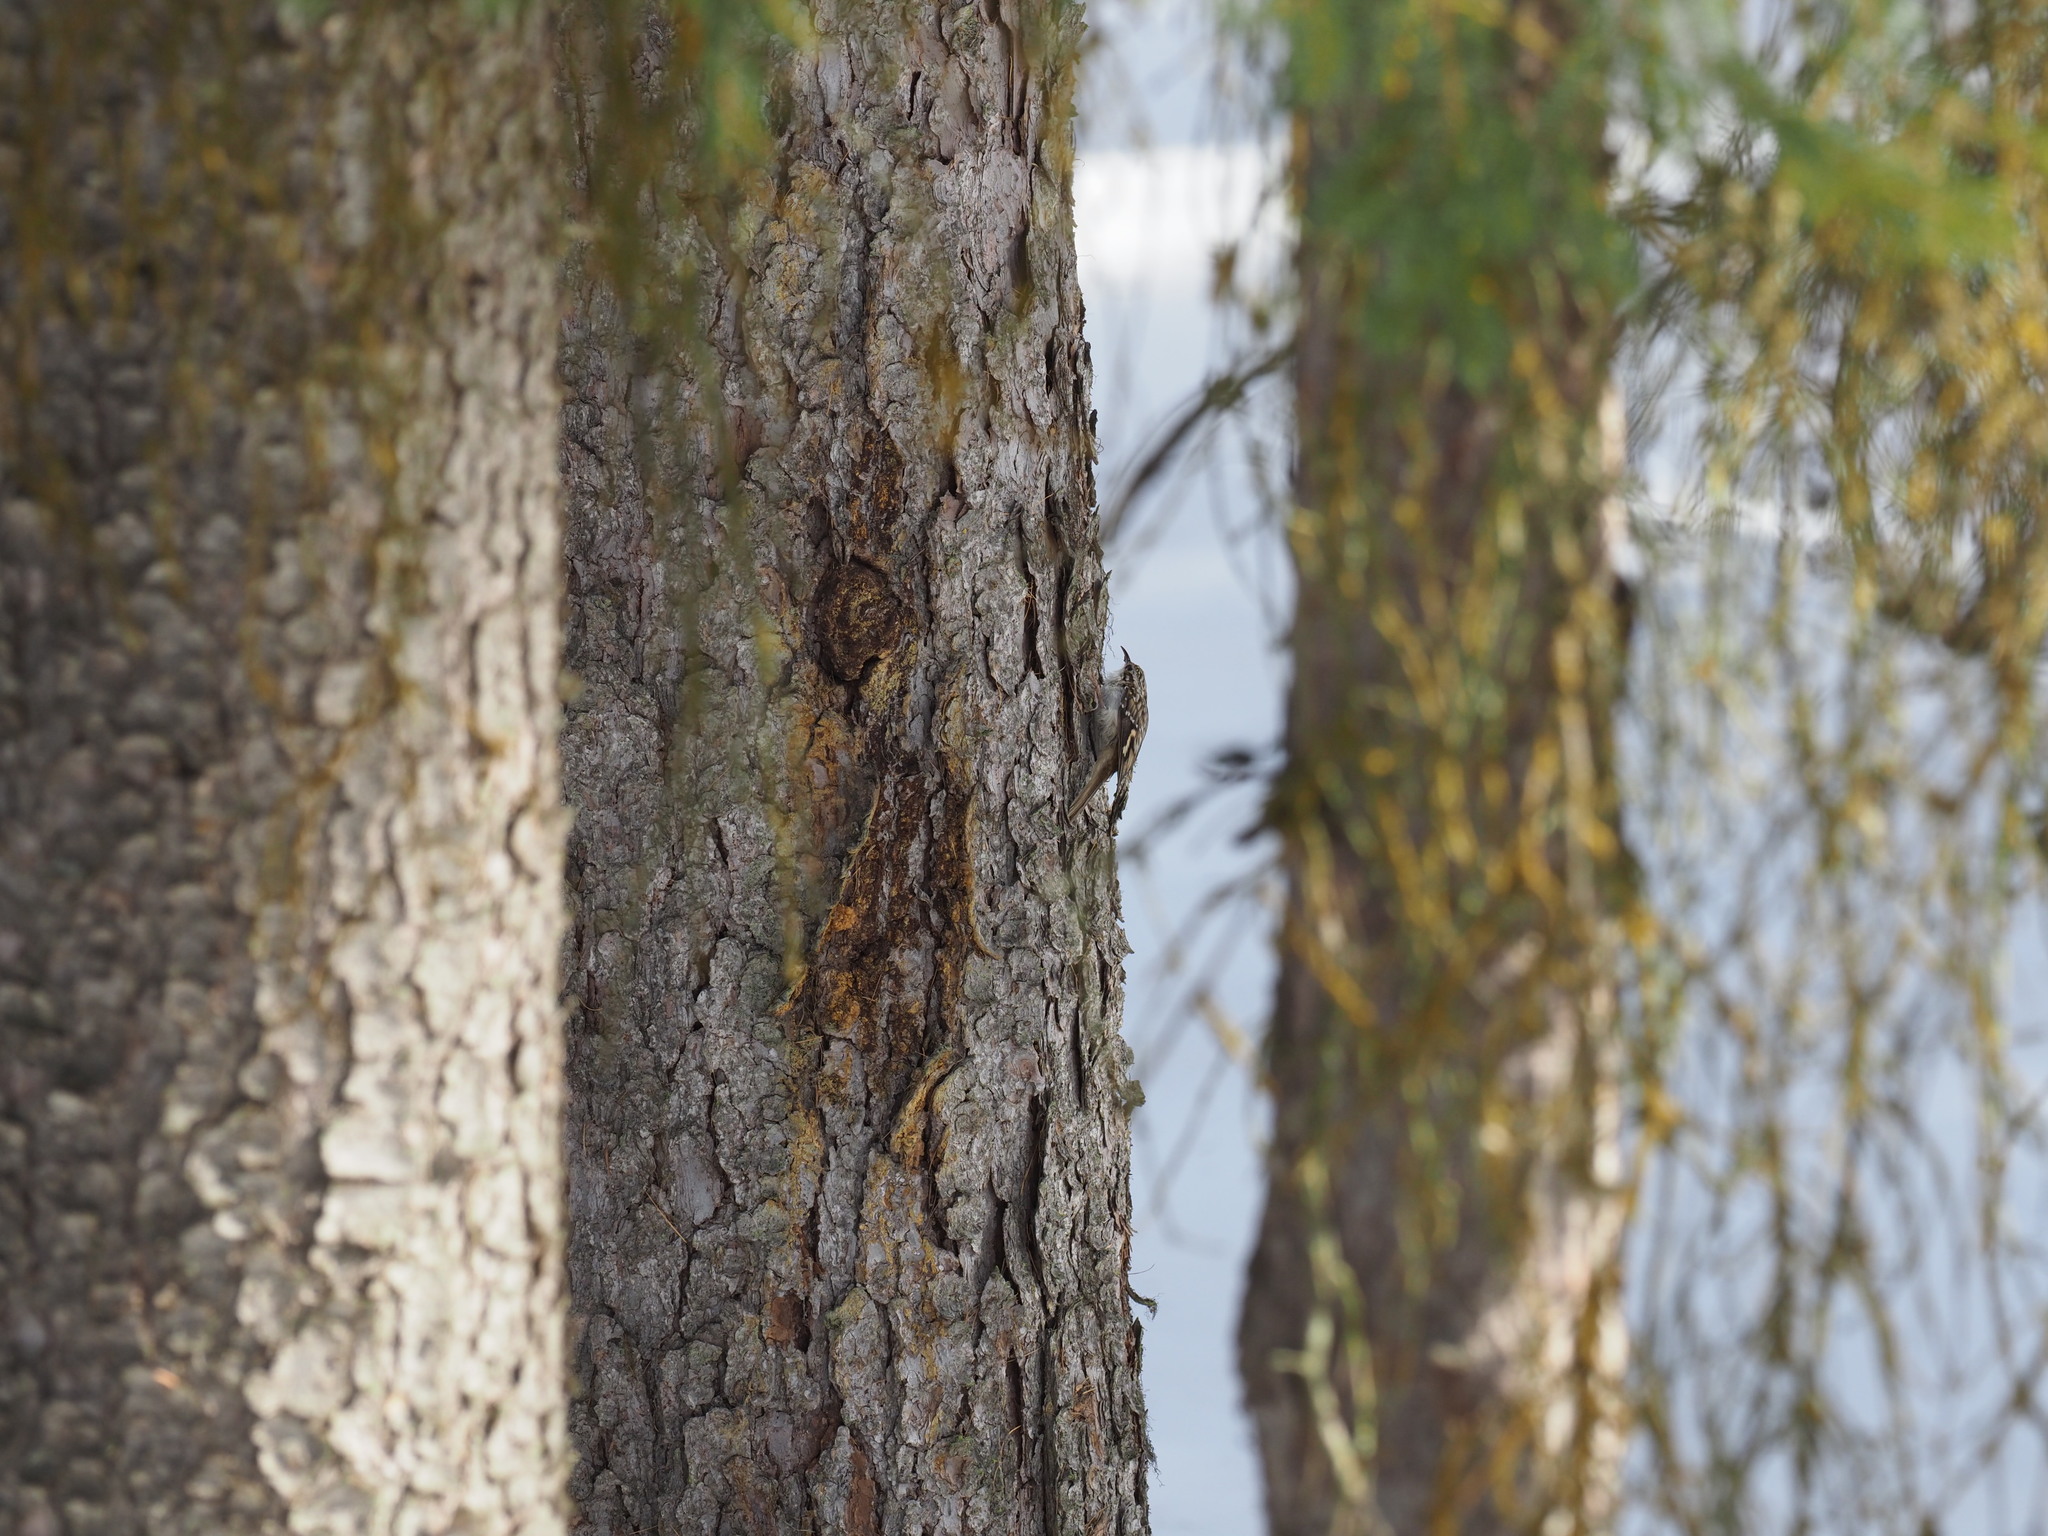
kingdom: Animalia
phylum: Chordata
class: Aves
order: Passeriformes
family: Certhiidae
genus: Certhia
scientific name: Certhia americana
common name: Brown creeper
